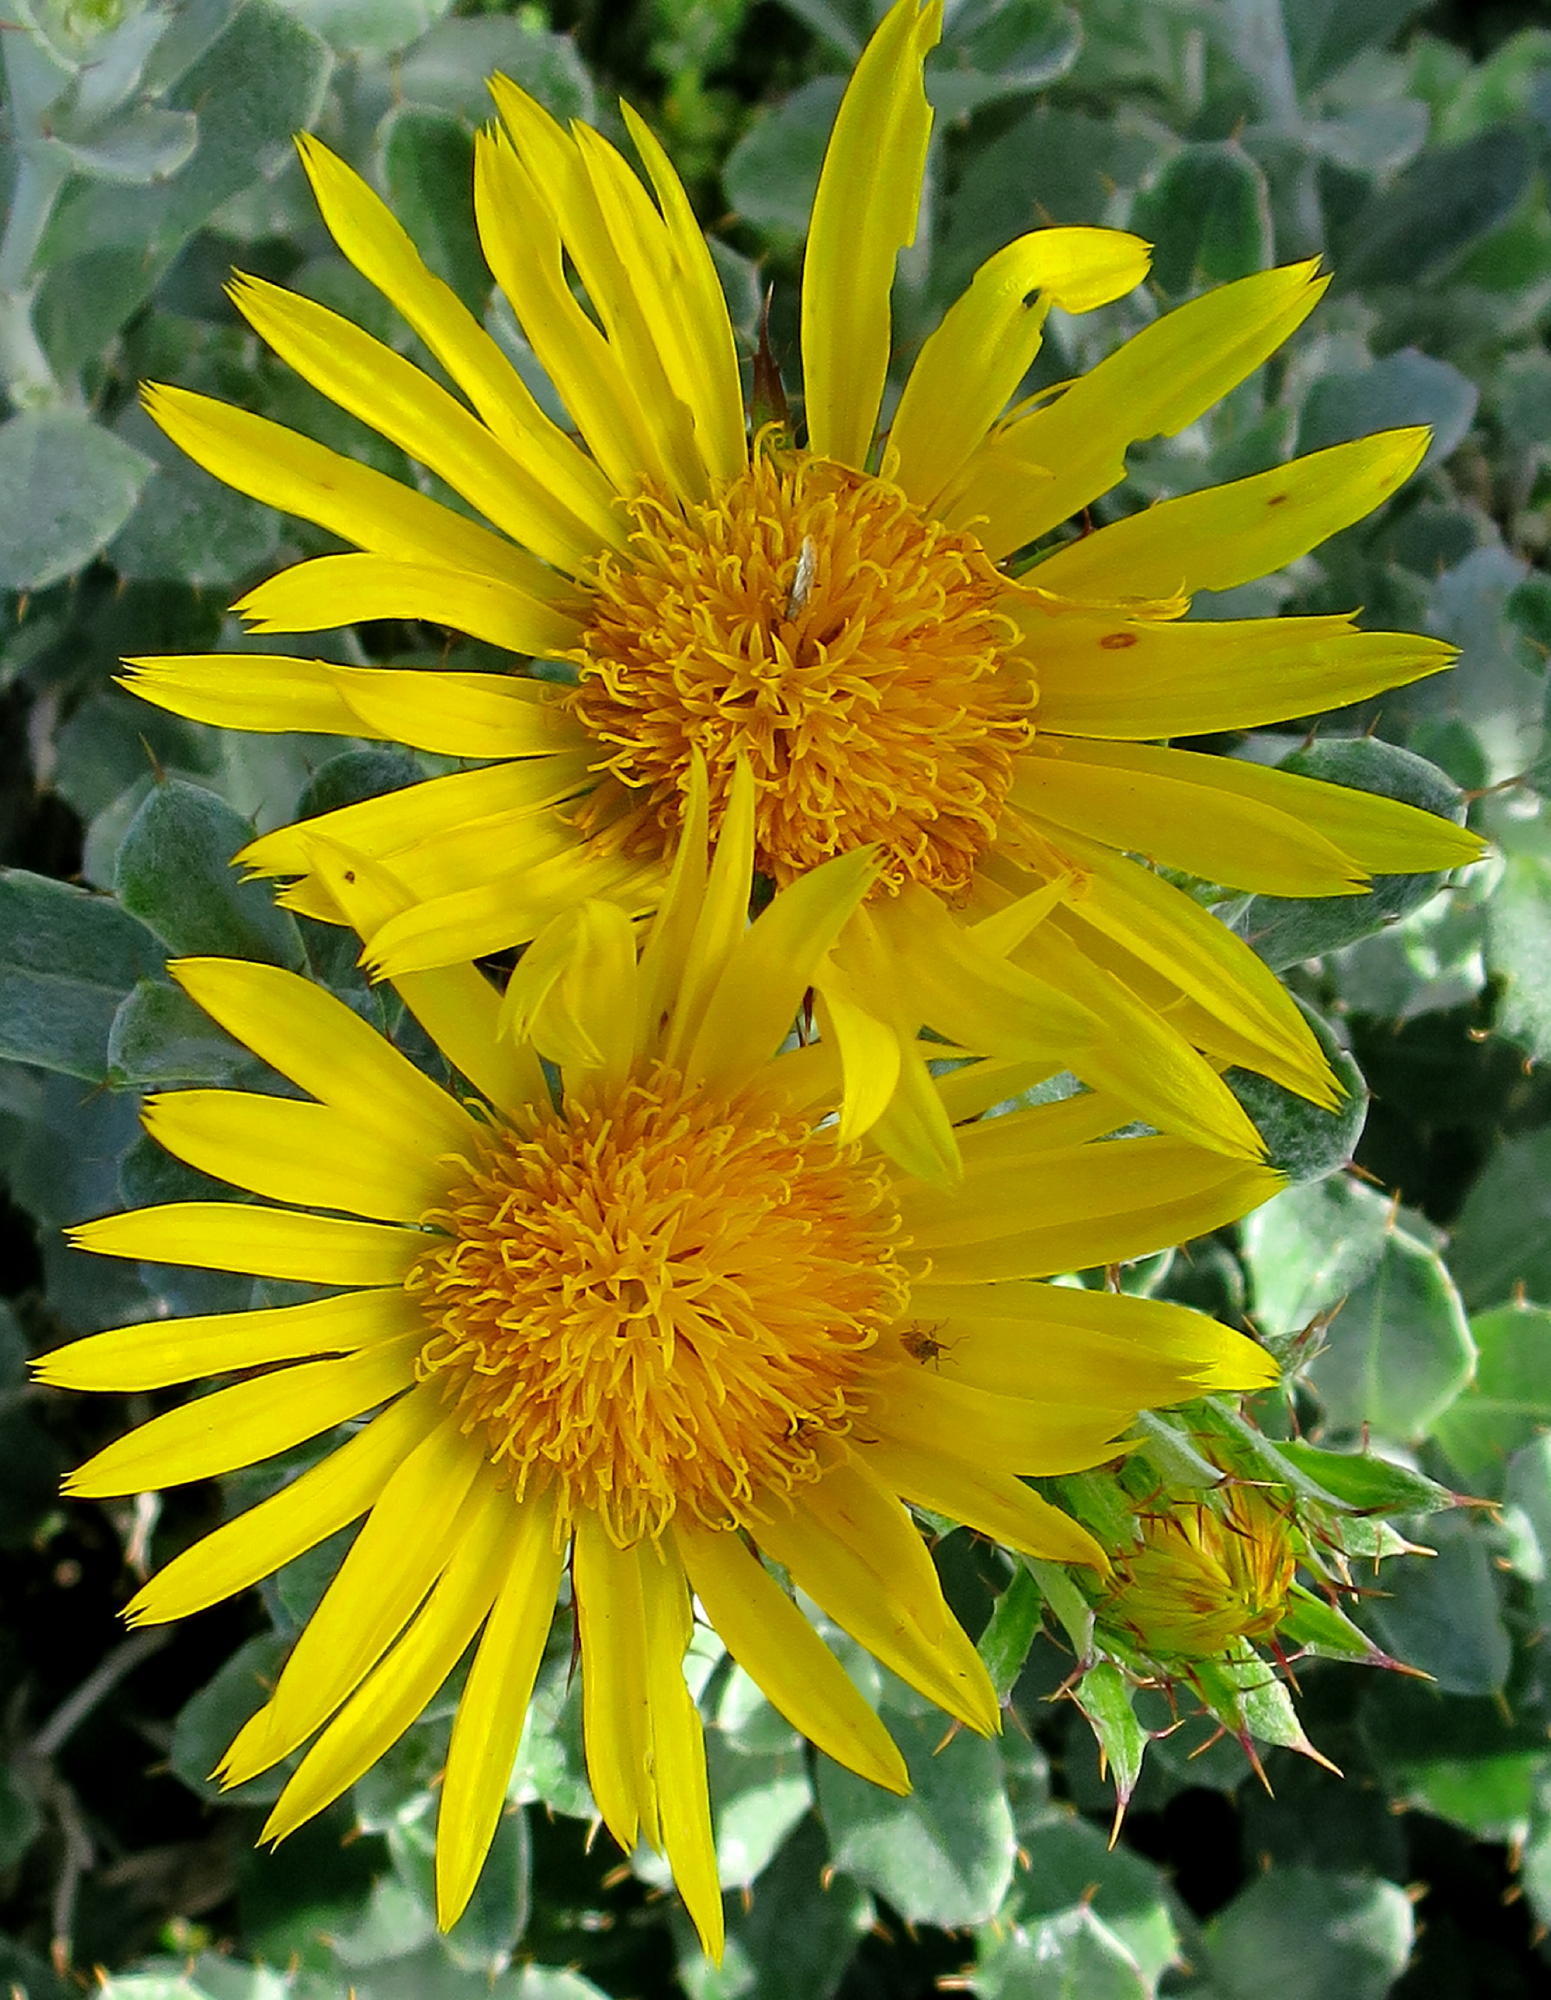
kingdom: Plantae
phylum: Tracheophyta
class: Magnoliopsida
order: Asterales
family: Asteraceae
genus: Berkheya
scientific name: Berkheya coriacea
